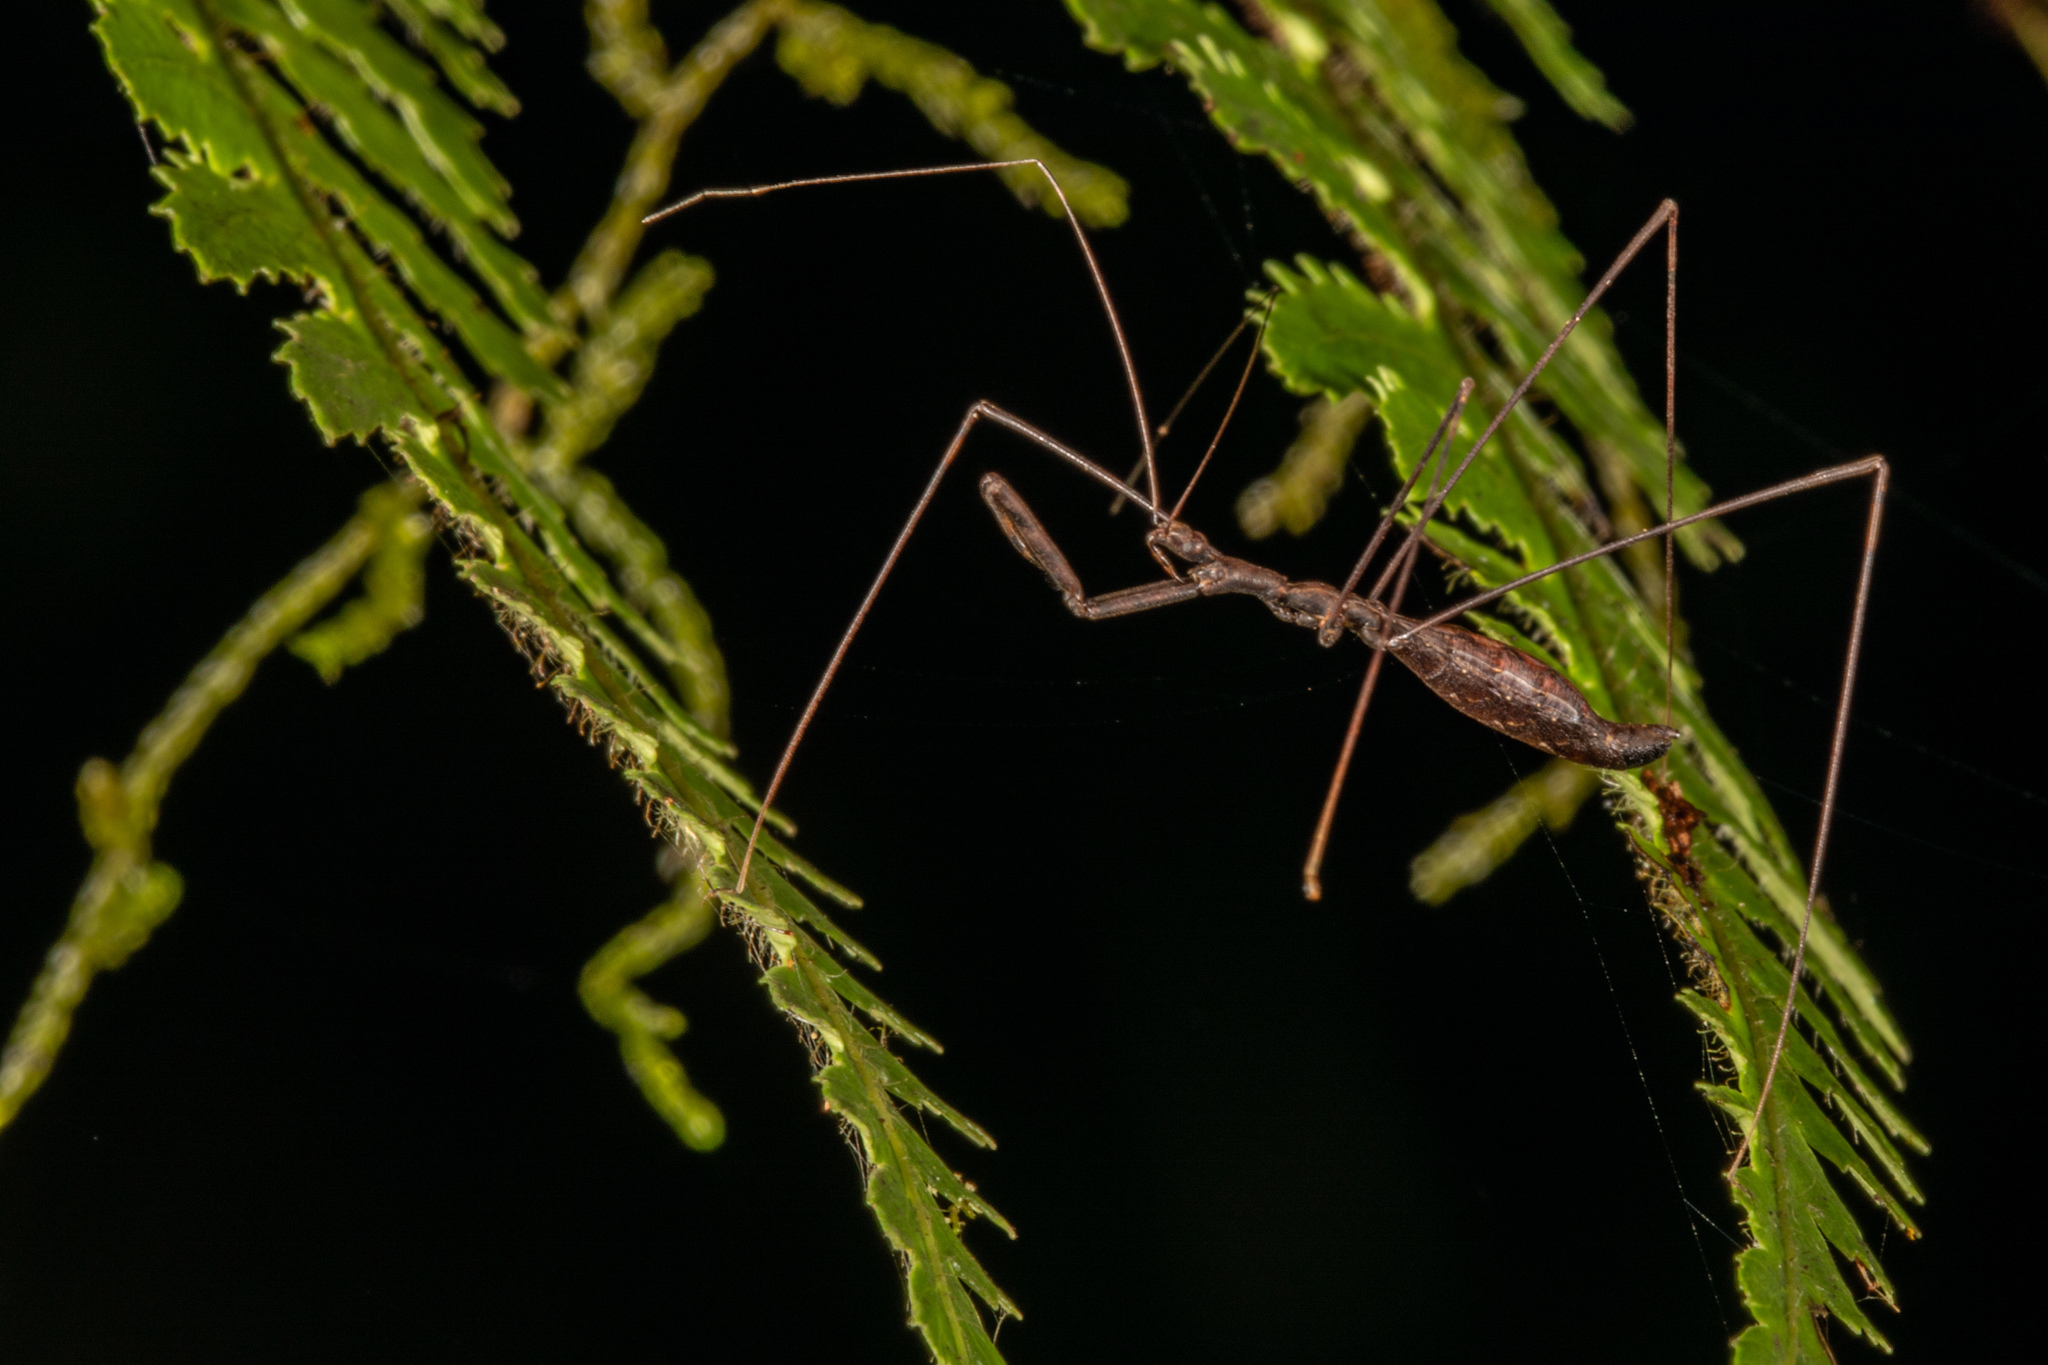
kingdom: Animalia
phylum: Arthropoda
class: Insecta
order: Hemiptera
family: Reduviidae
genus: Ploiaria
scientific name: Ploiaria antipodum
